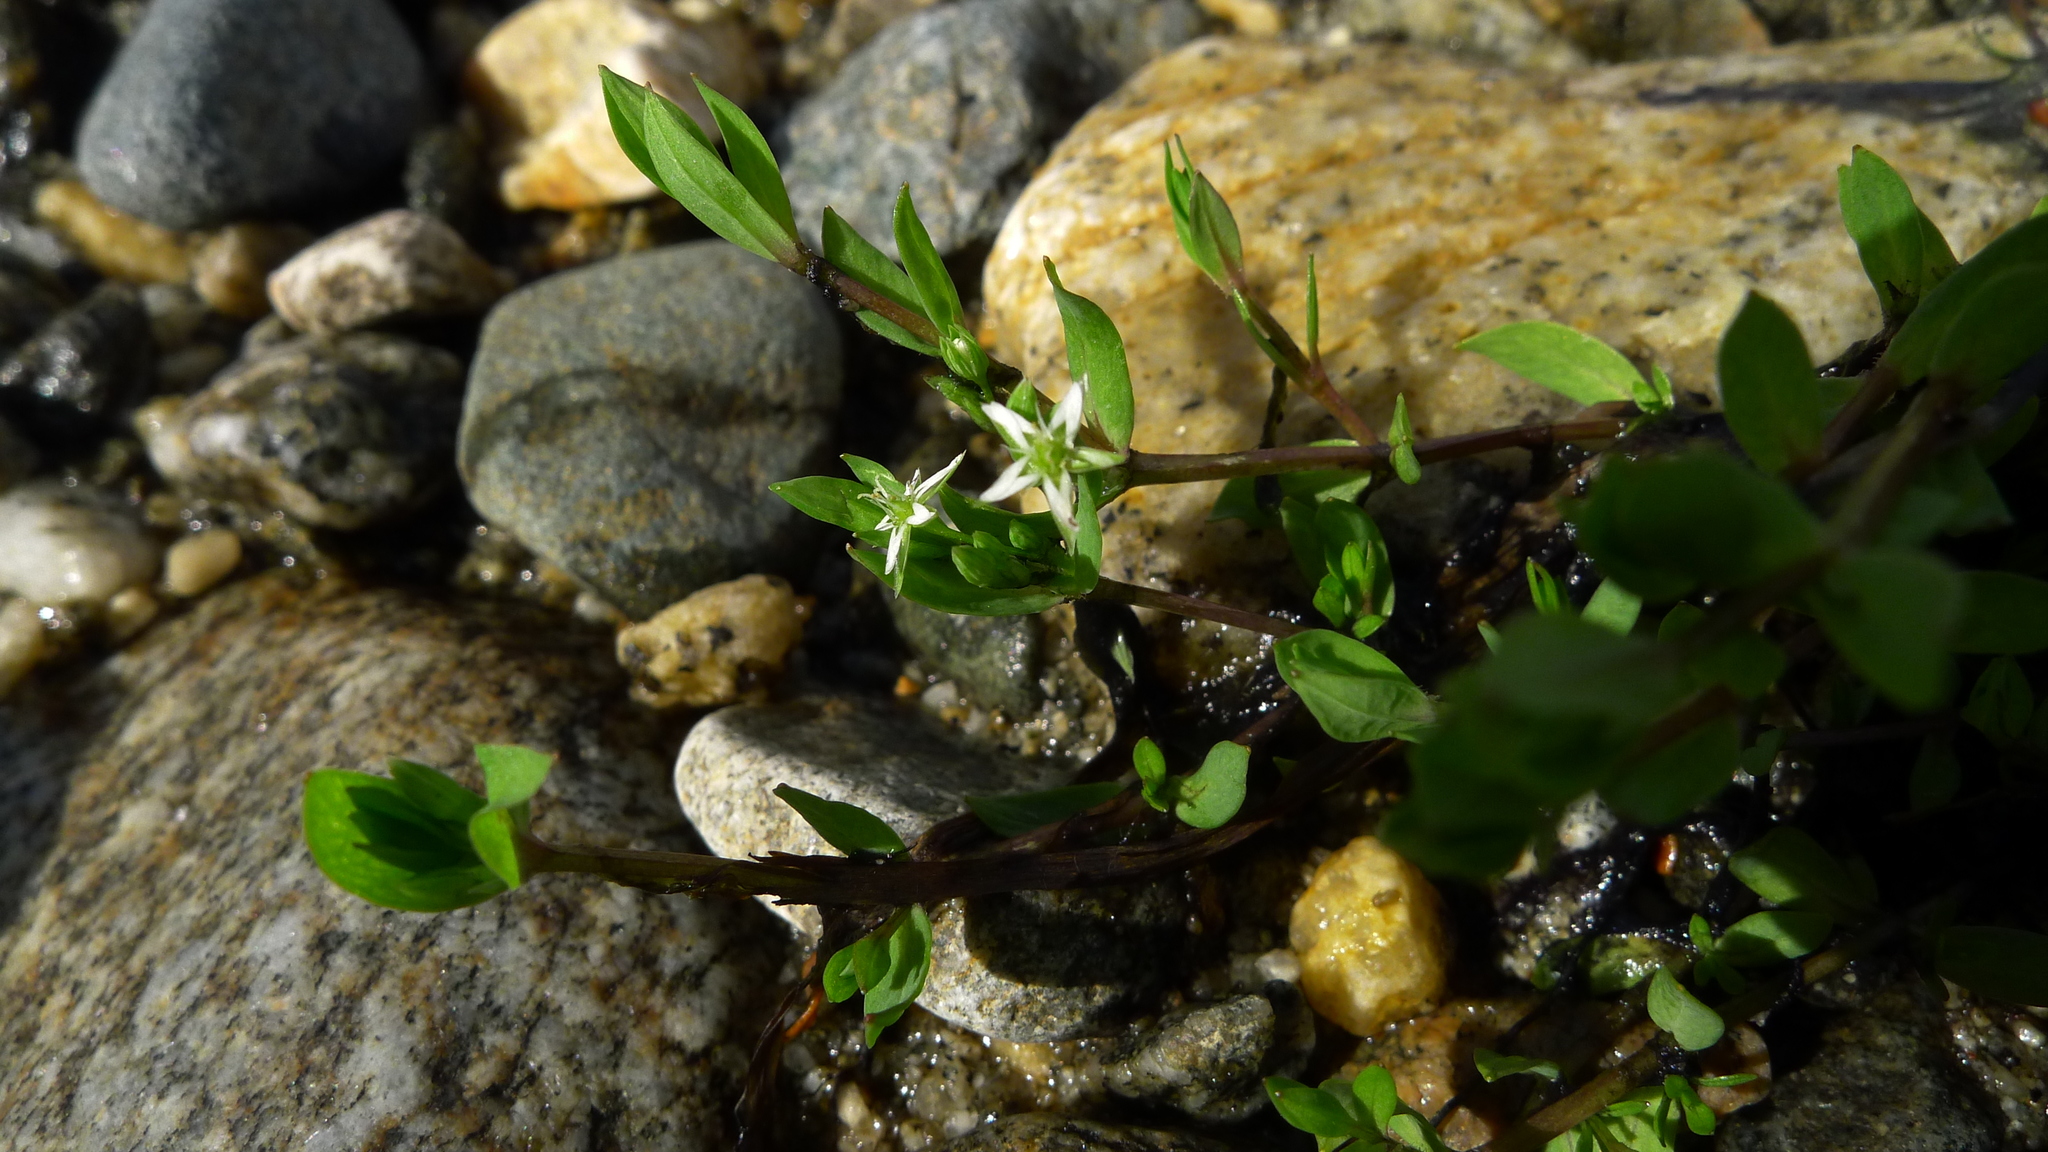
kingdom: Plantae
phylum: Tracheophyta
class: Magnoliopsida
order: Caryophyllales
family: Caryophyllaceae
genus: Stellaria
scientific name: Stellaria alsine
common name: Bog stitchwort
